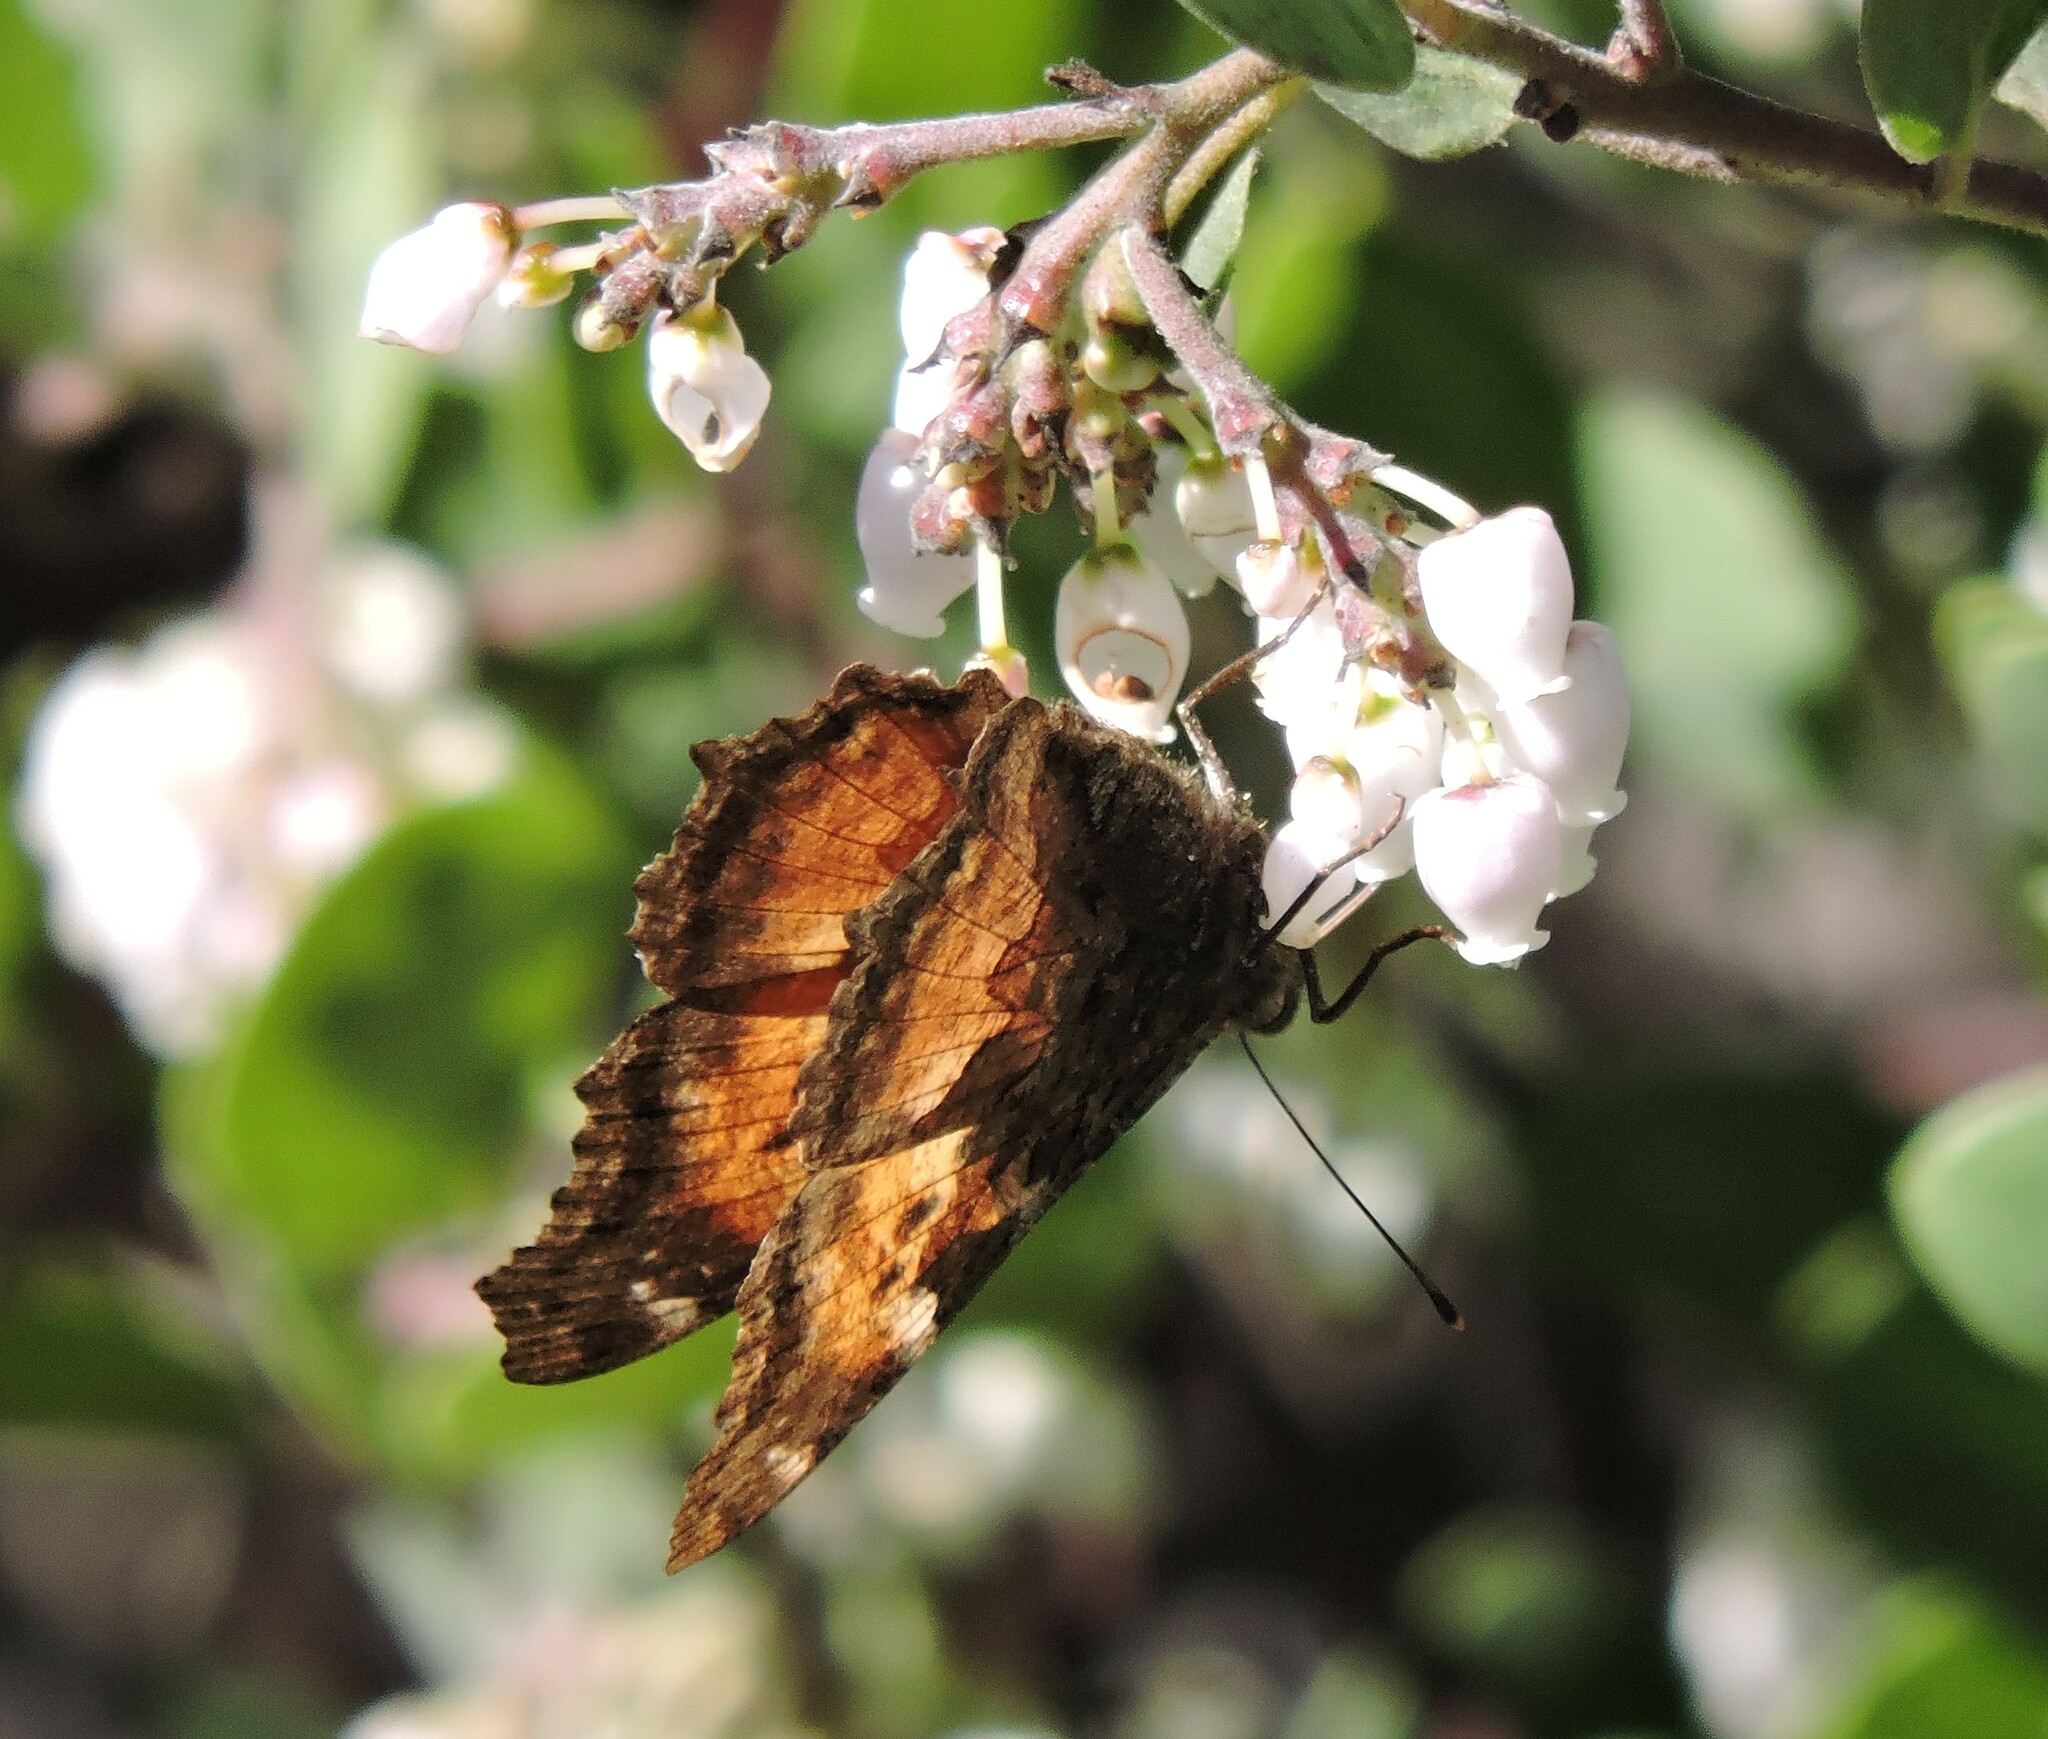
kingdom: Animalia
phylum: Arthropoda
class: Insecta
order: Lepidoptera
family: Nymphalidae
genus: Nymphalis
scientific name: Nymphalis californica
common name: California tortoiseshell
